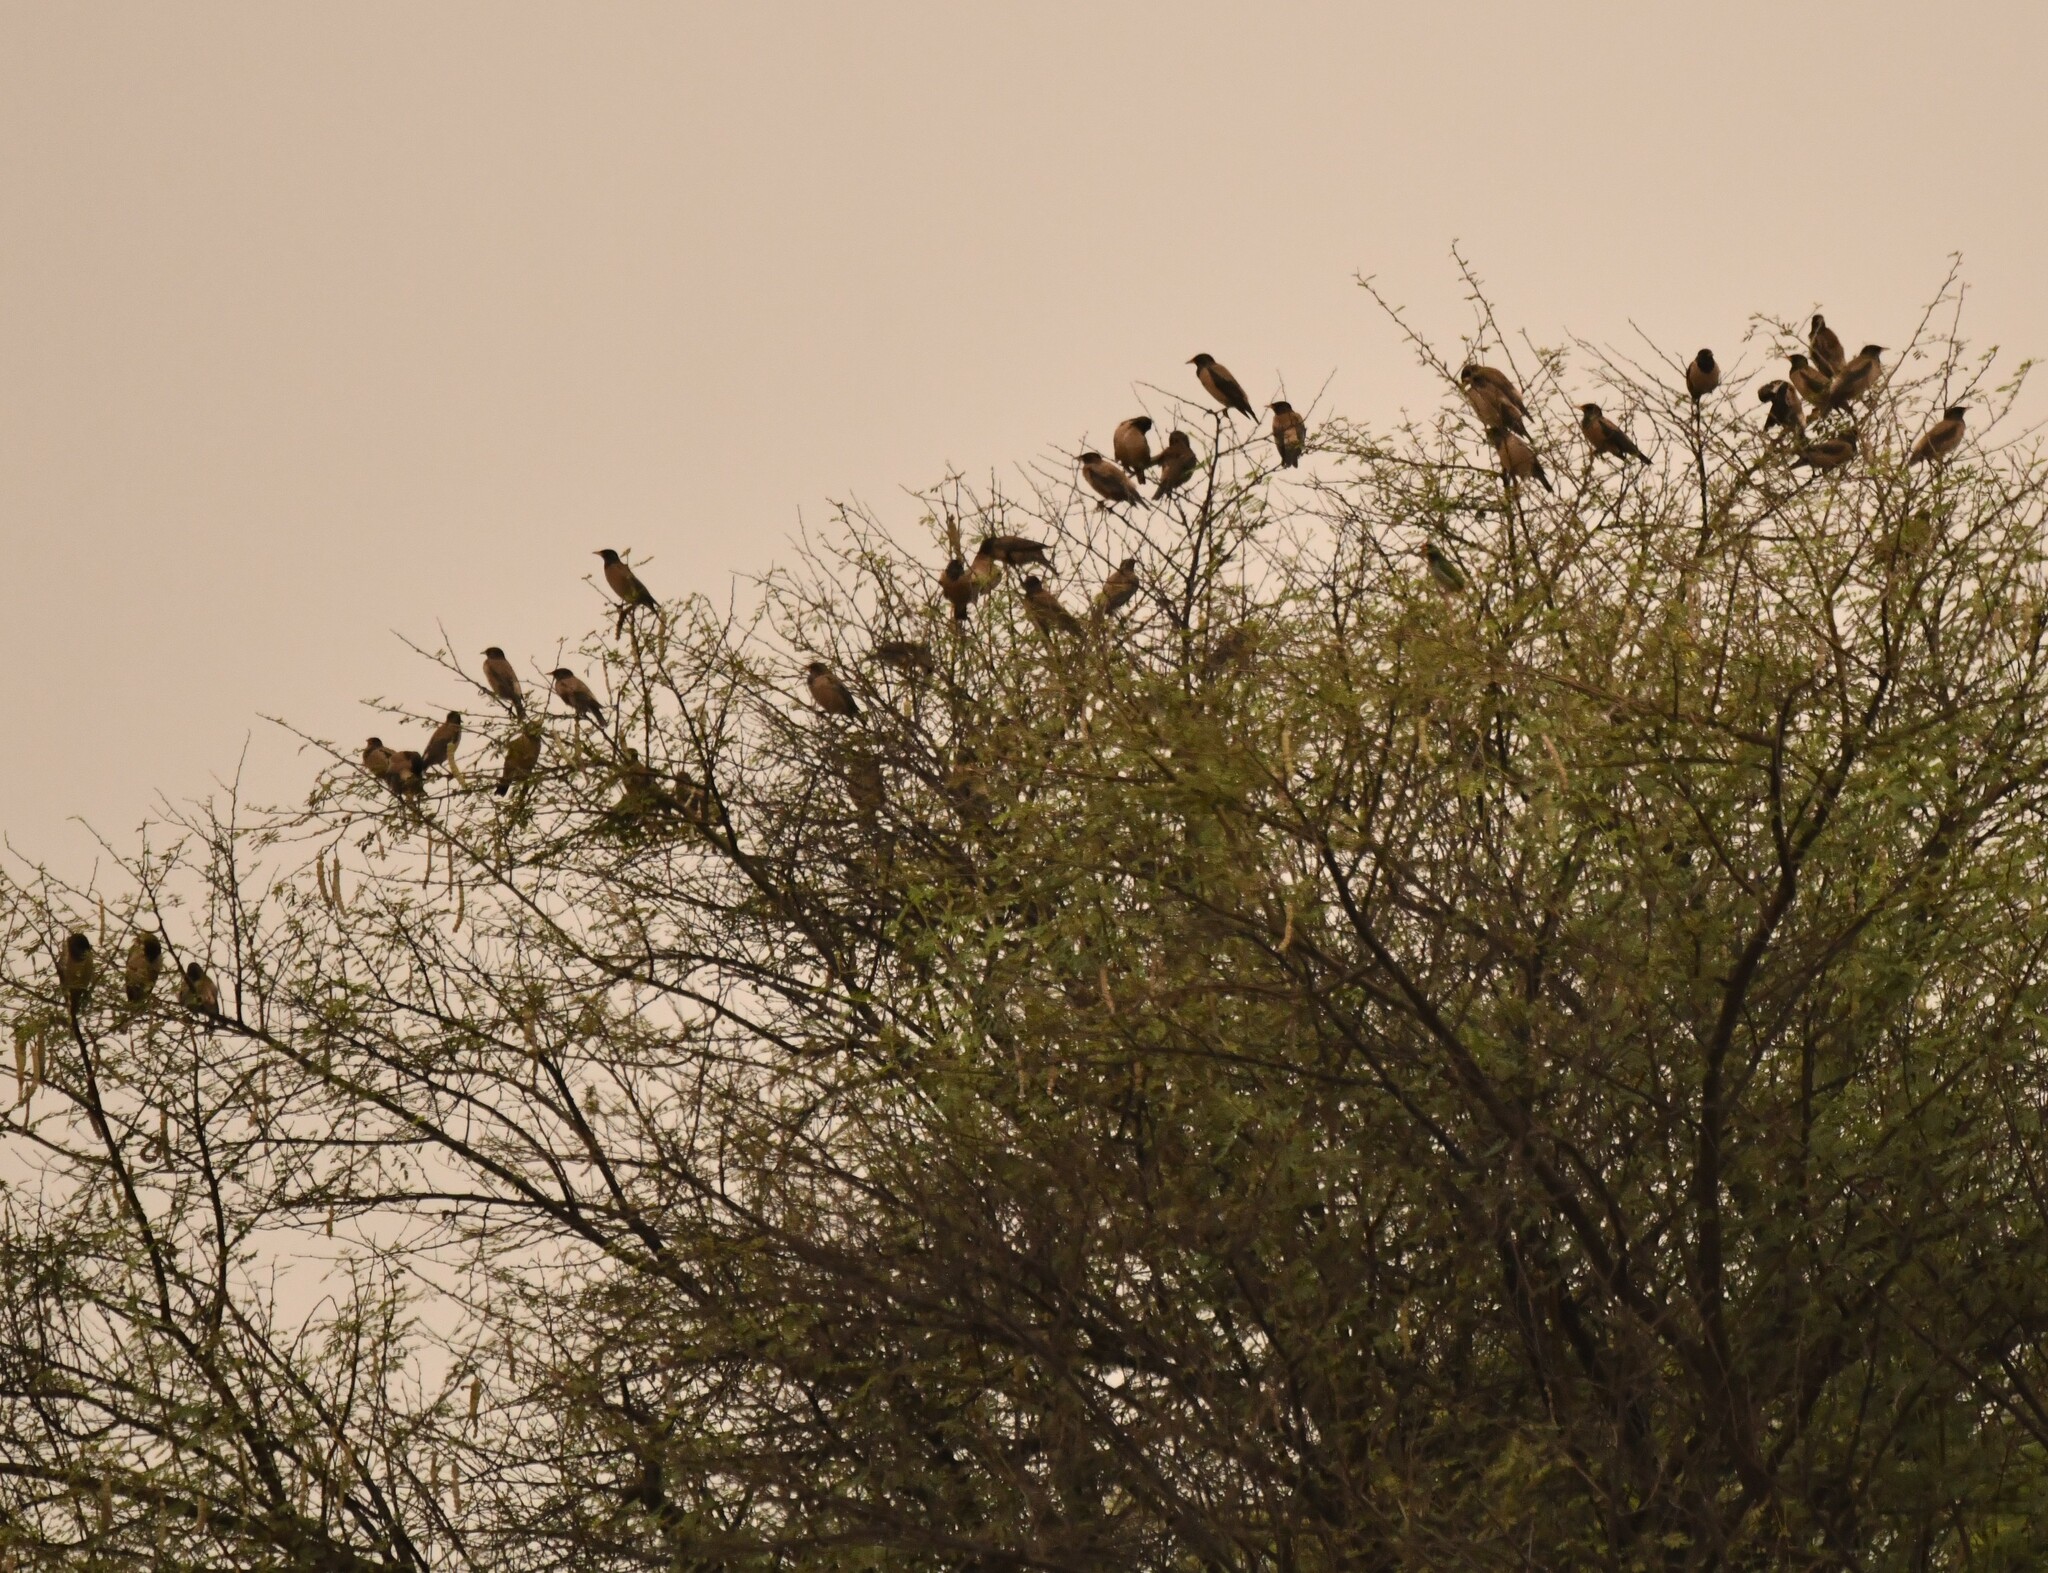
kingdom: Animalia
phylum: Chordata
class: Aves
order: Passeriformes
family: Sturnidae
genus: Pastor
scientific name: Pastor roseus
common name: Rosy starling
